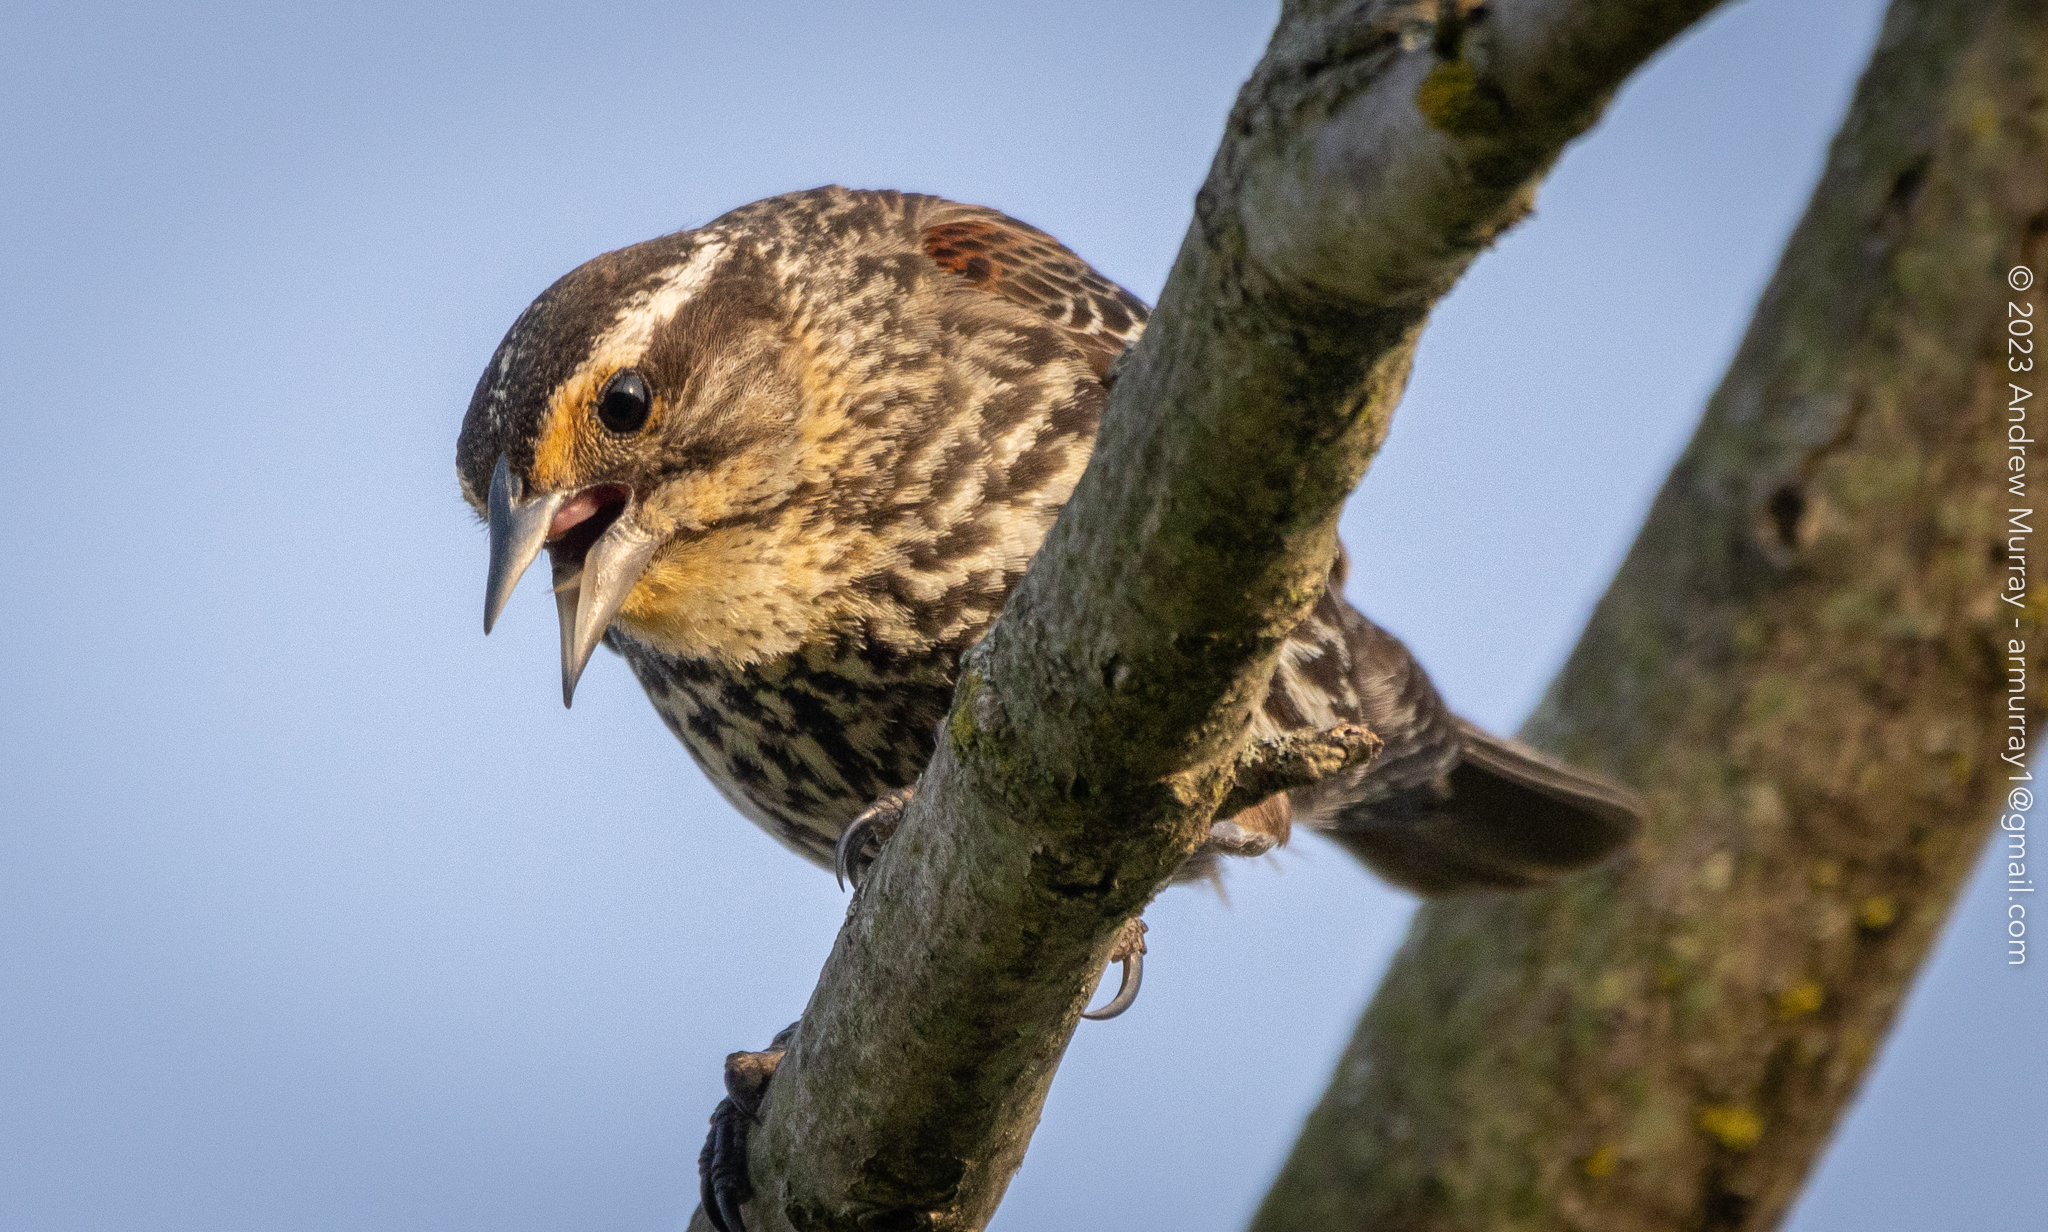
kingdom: Animalia
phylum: Chordata
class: Aves
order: Passeriformes
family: Icteridae
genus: Agelaius
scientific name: Agelaius phoeniceus
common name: Red-winged blackbird
